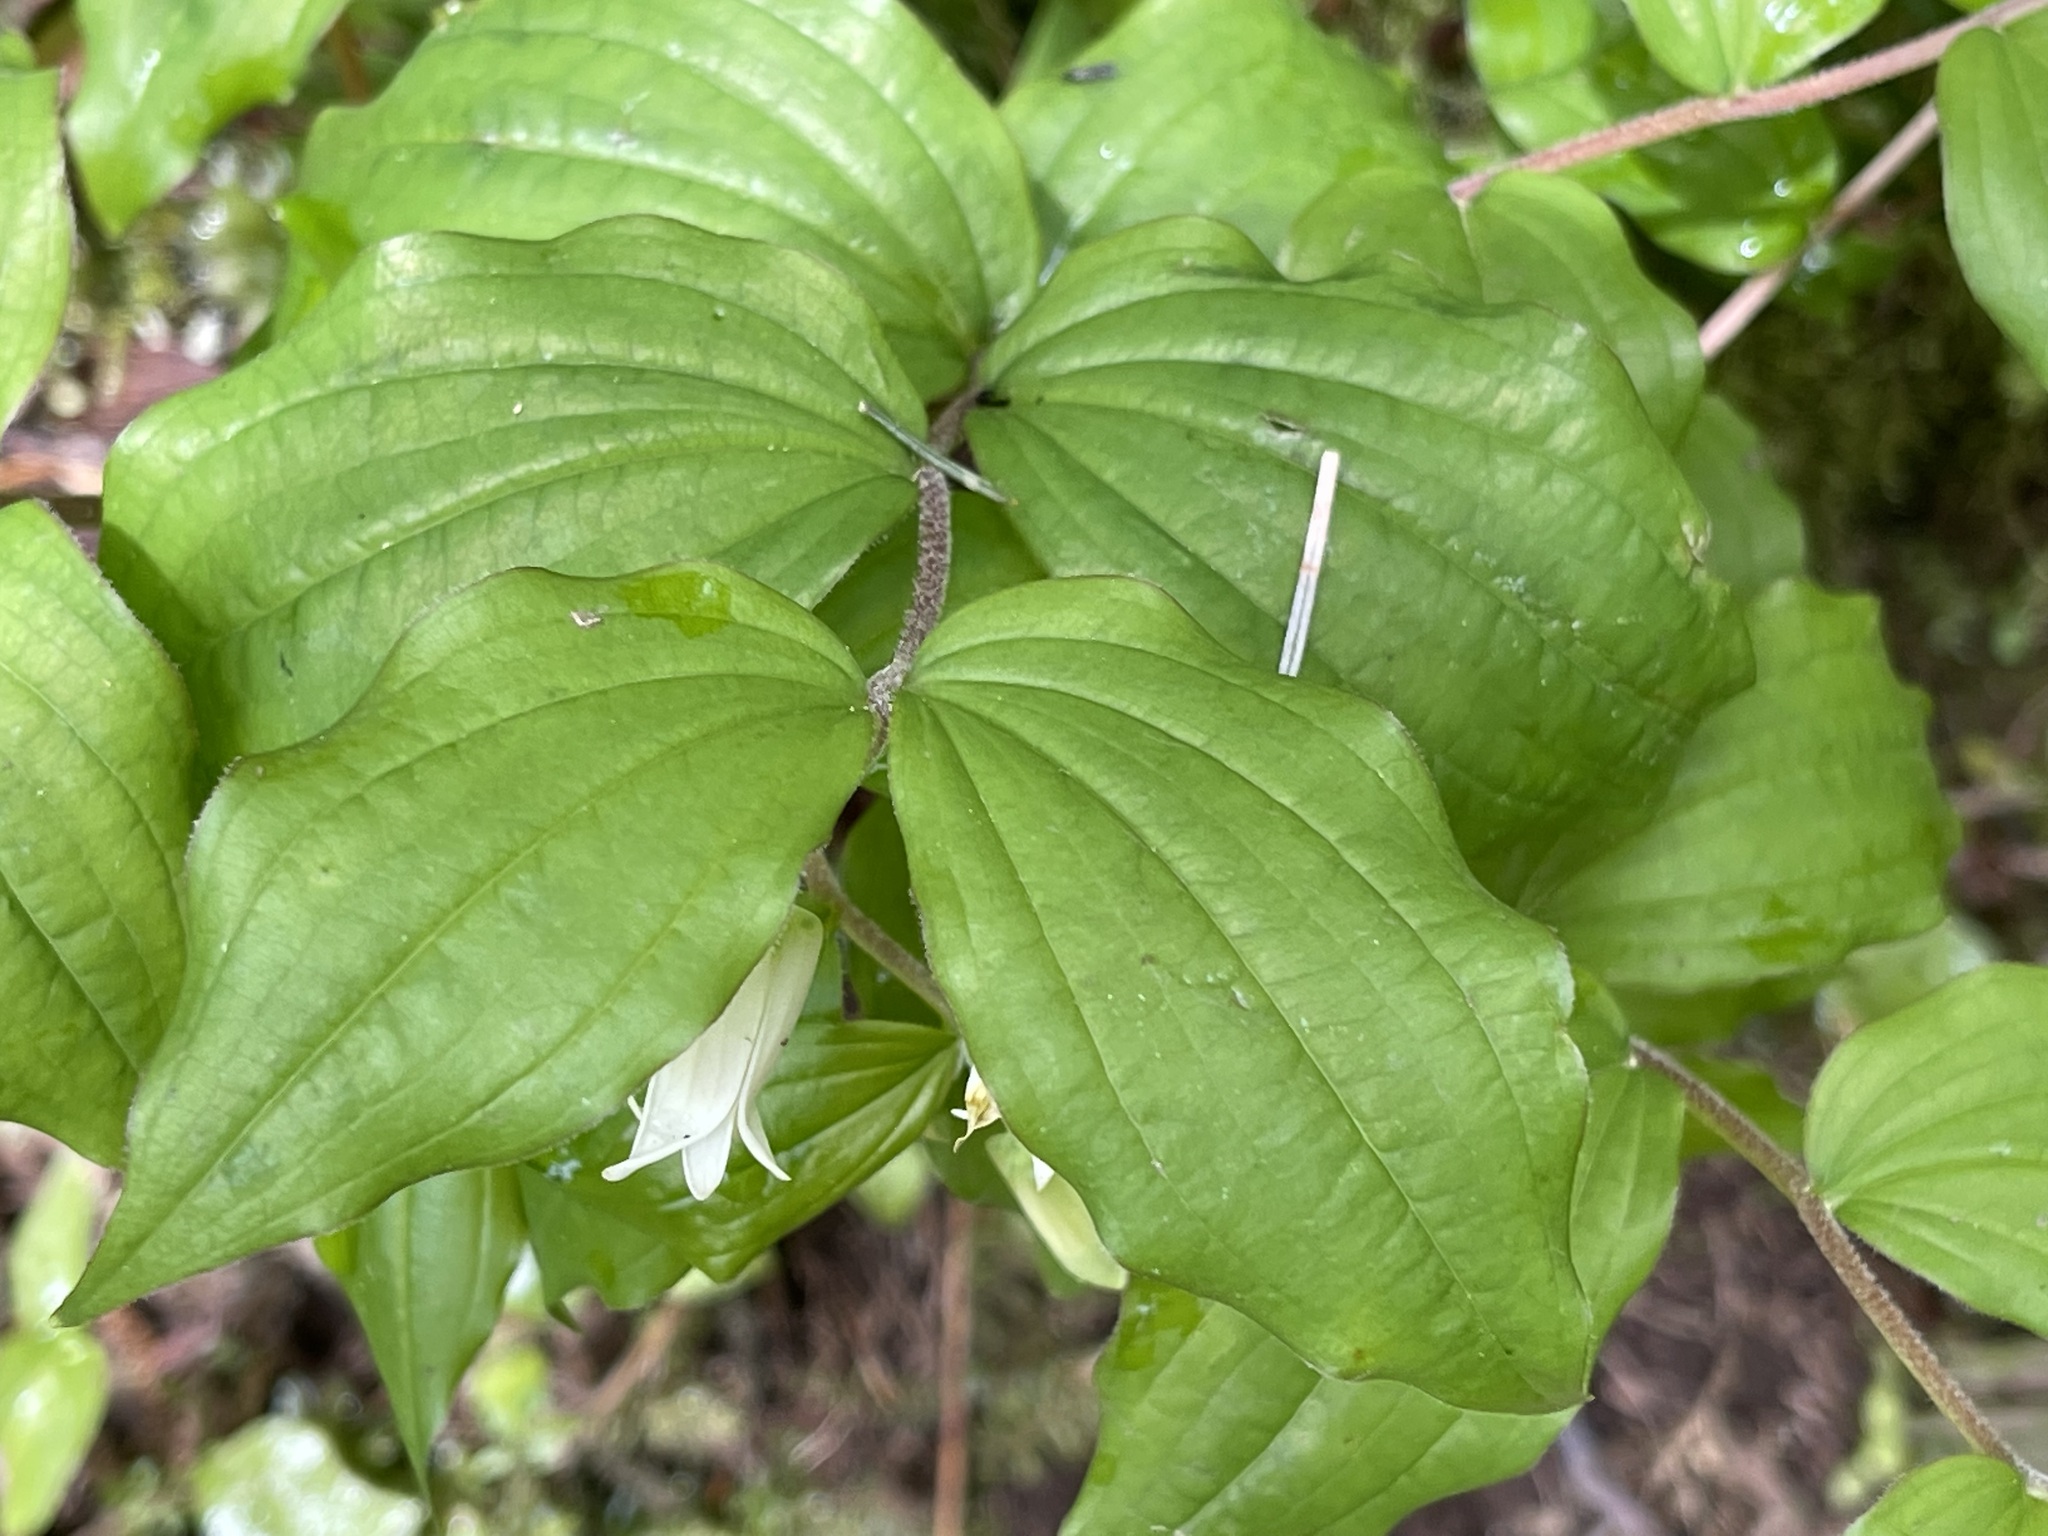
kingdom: Plantae
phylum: Tracheophyta
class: Liliopsida
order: Liliales
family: Liliaceae
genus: Prosartes
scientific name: Prosartes smithii
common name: Fairy-lantern
